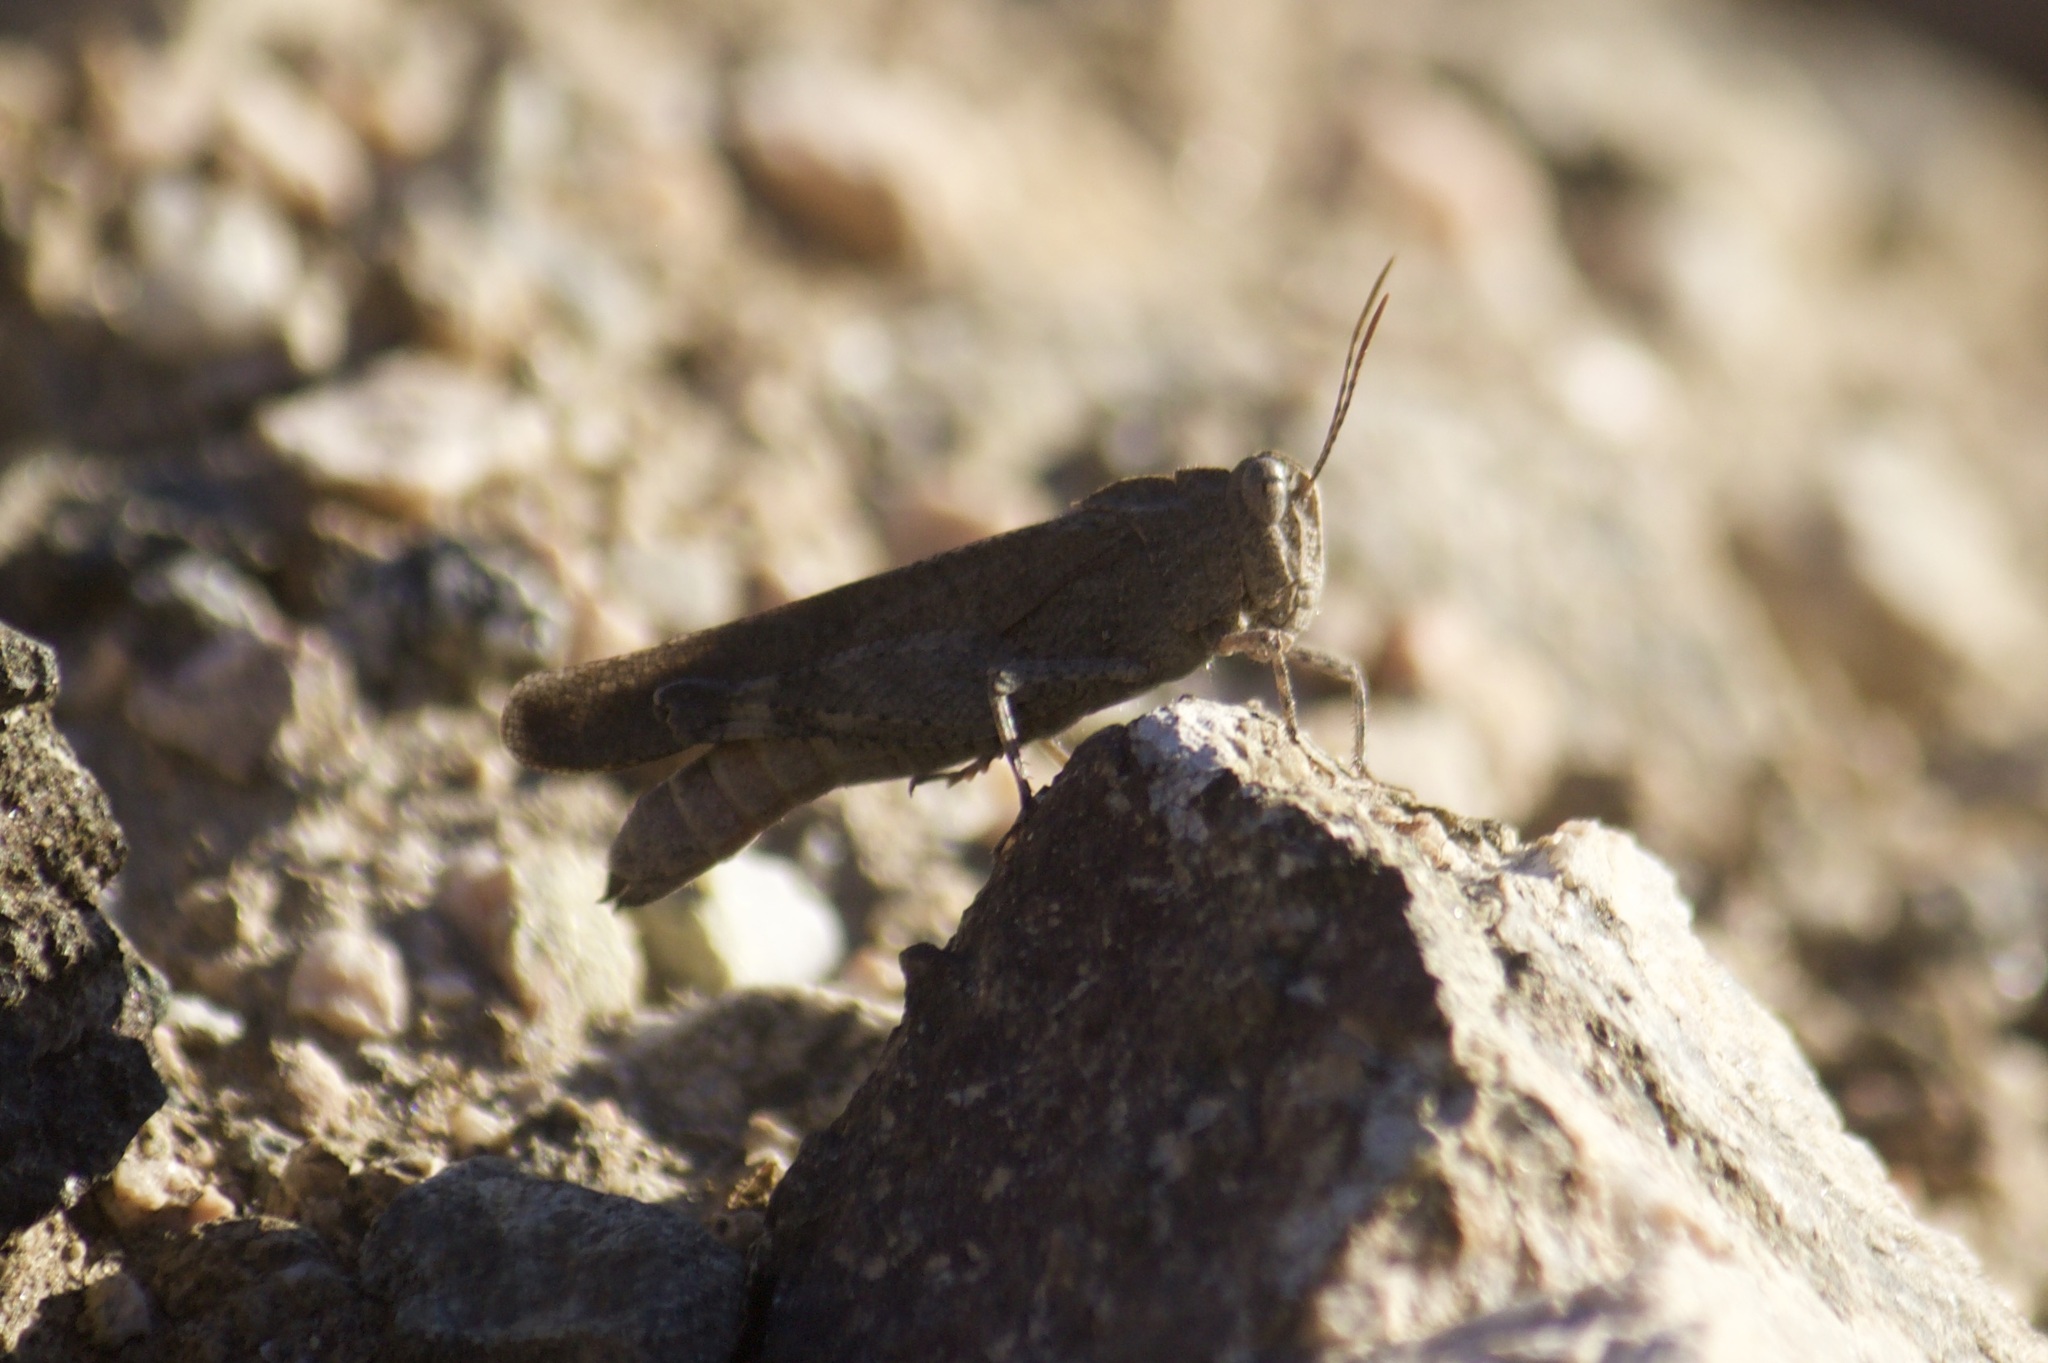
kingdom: Animalia
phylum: Arthropoda
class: Insecta
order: Orthoptera
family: Acrididae
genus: Lactista
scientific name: Lactista gibbosus
